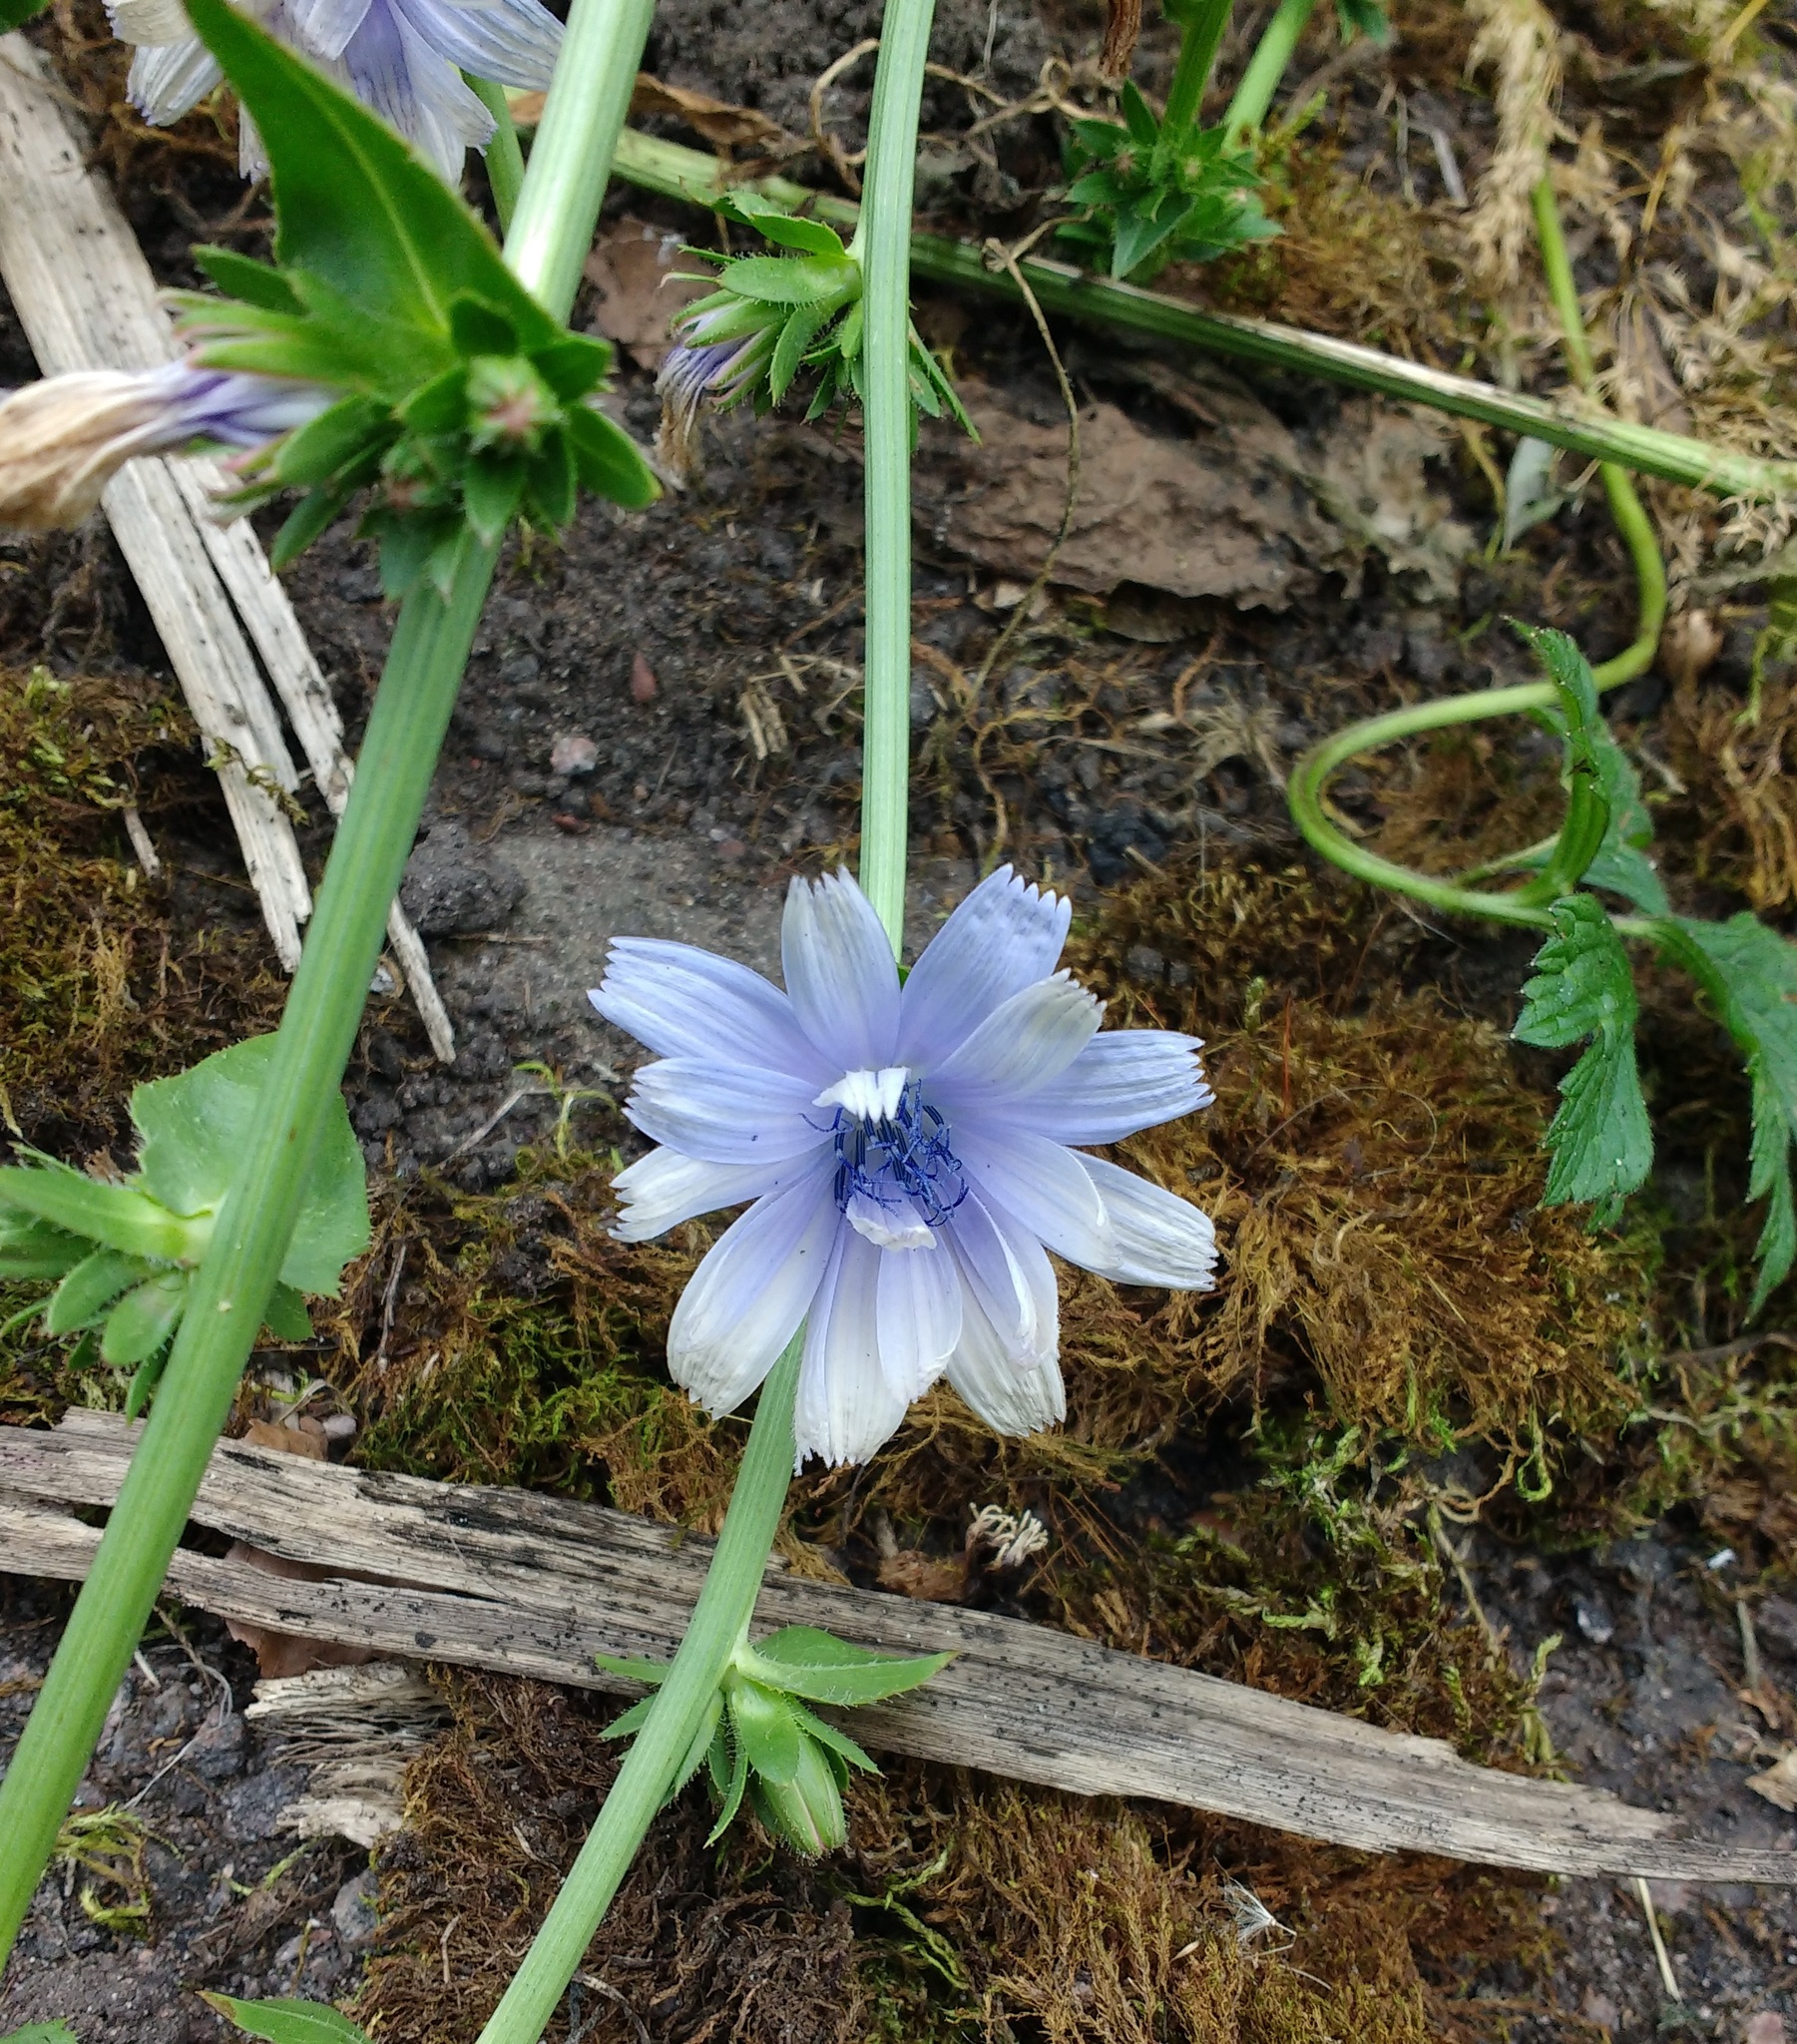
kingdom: Plantae
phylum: Tracheophyta
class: Magnoliopsida
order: Asterales
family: Asteraceae
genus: Cichorium
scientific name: Cichorium intybus
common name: Chicory
